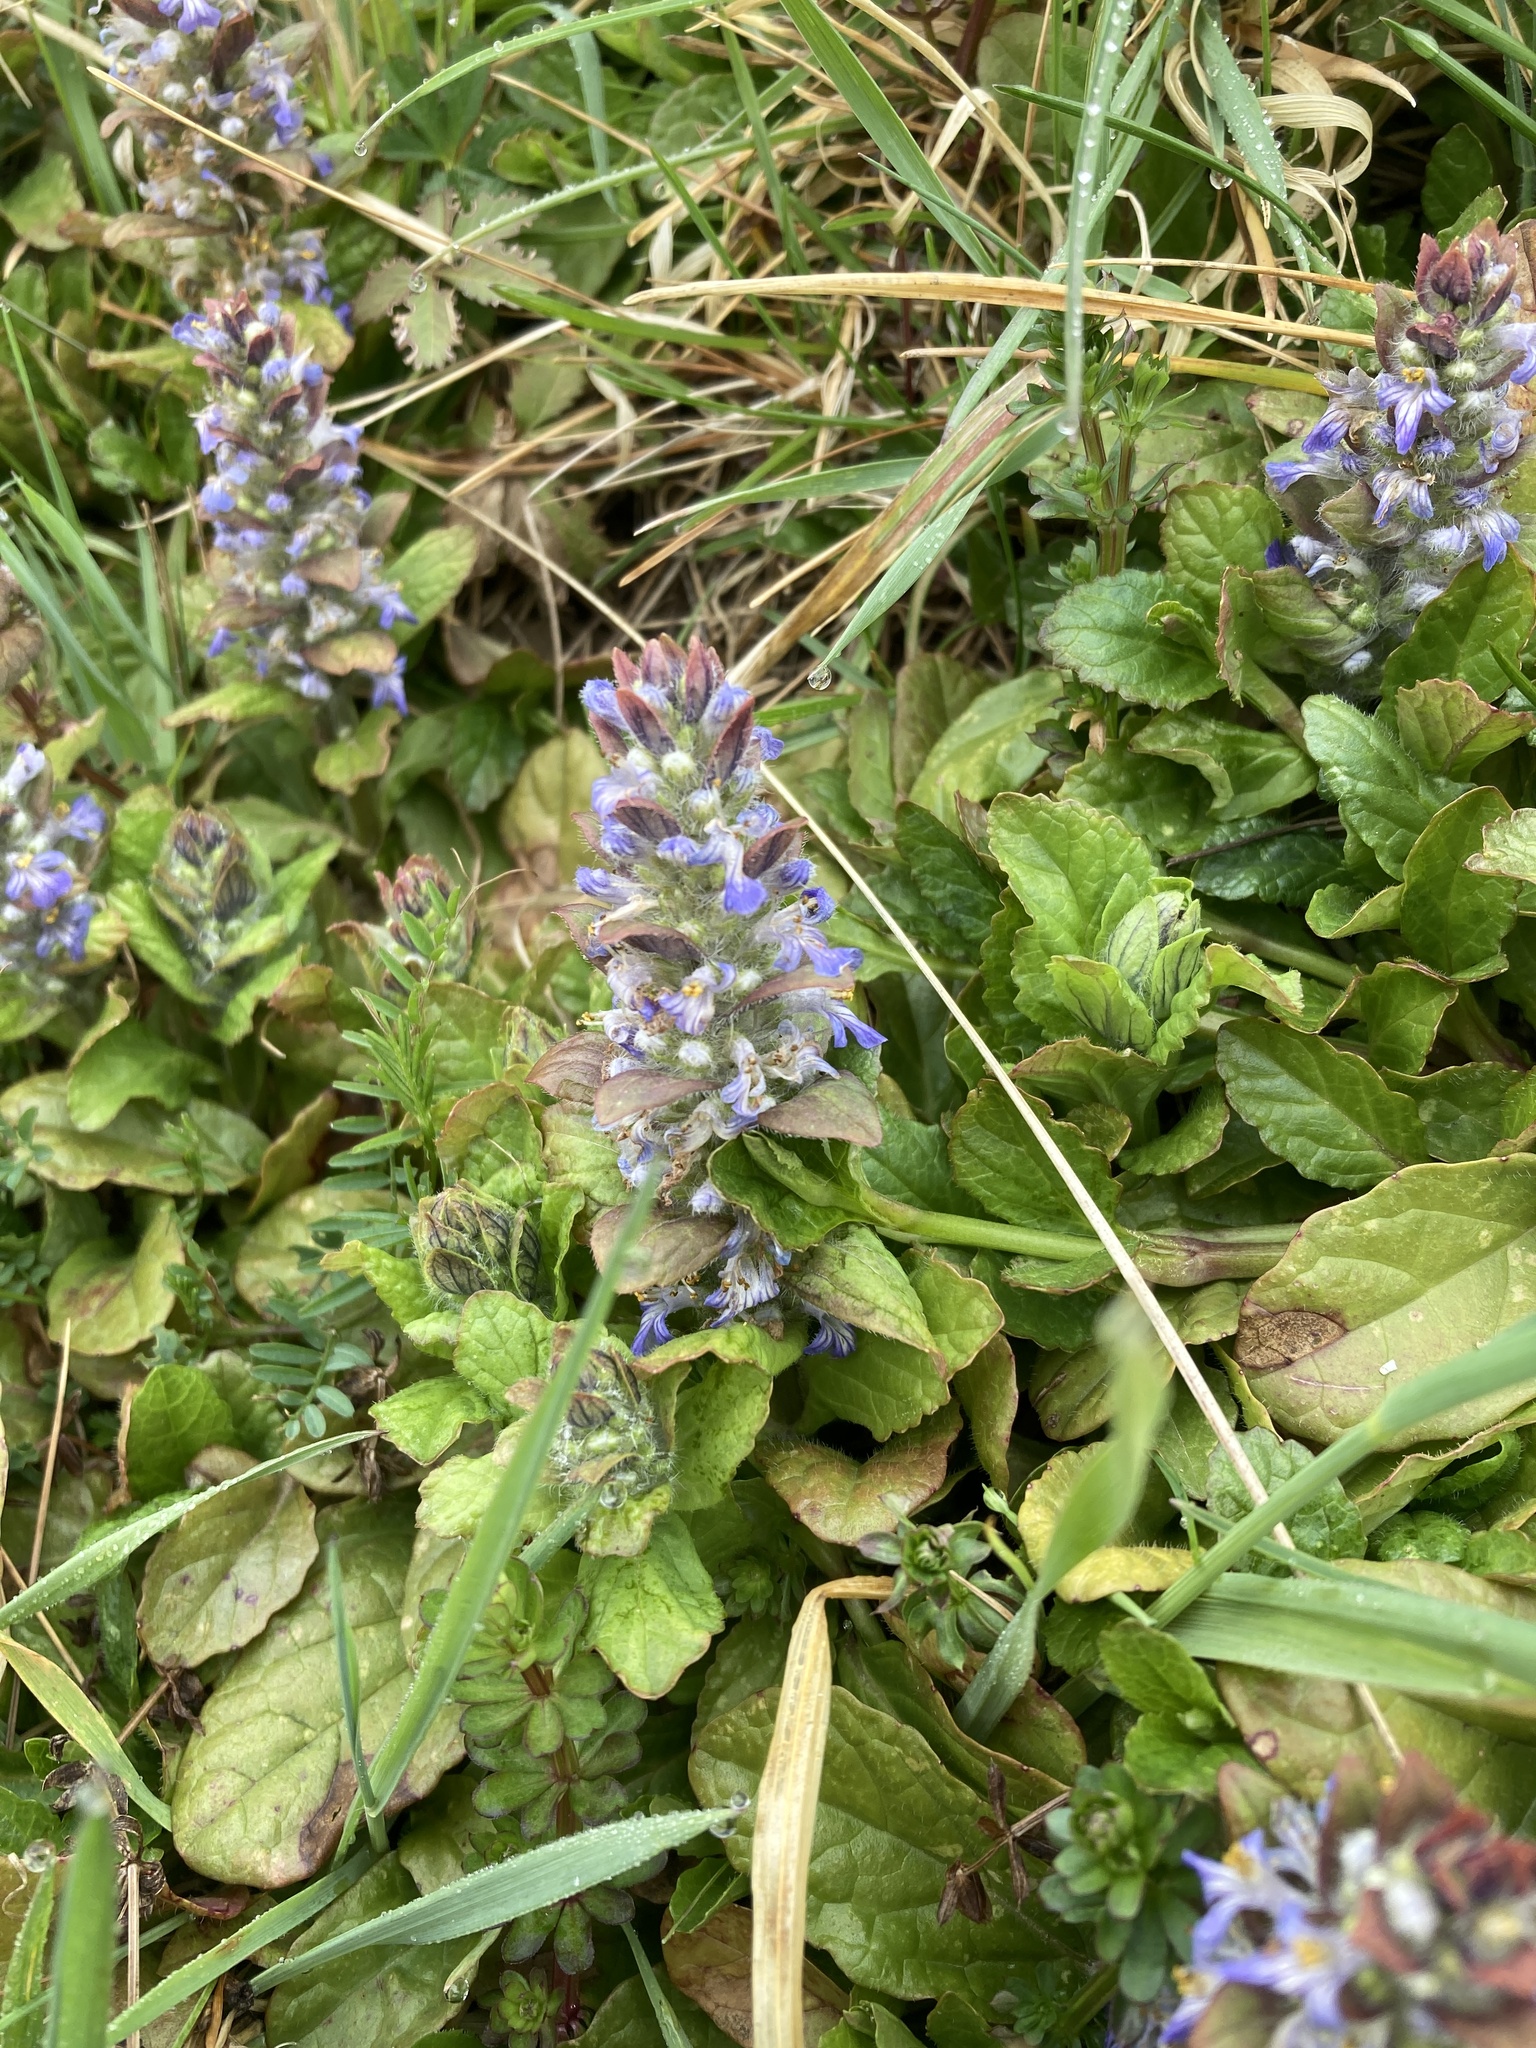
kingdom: Plantae
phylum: Tracheophyta
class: Magnoliopsida
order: Lamiales
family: Lamiaceae
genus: Ajuga
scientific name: Ajuga reptans
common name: Bugle
